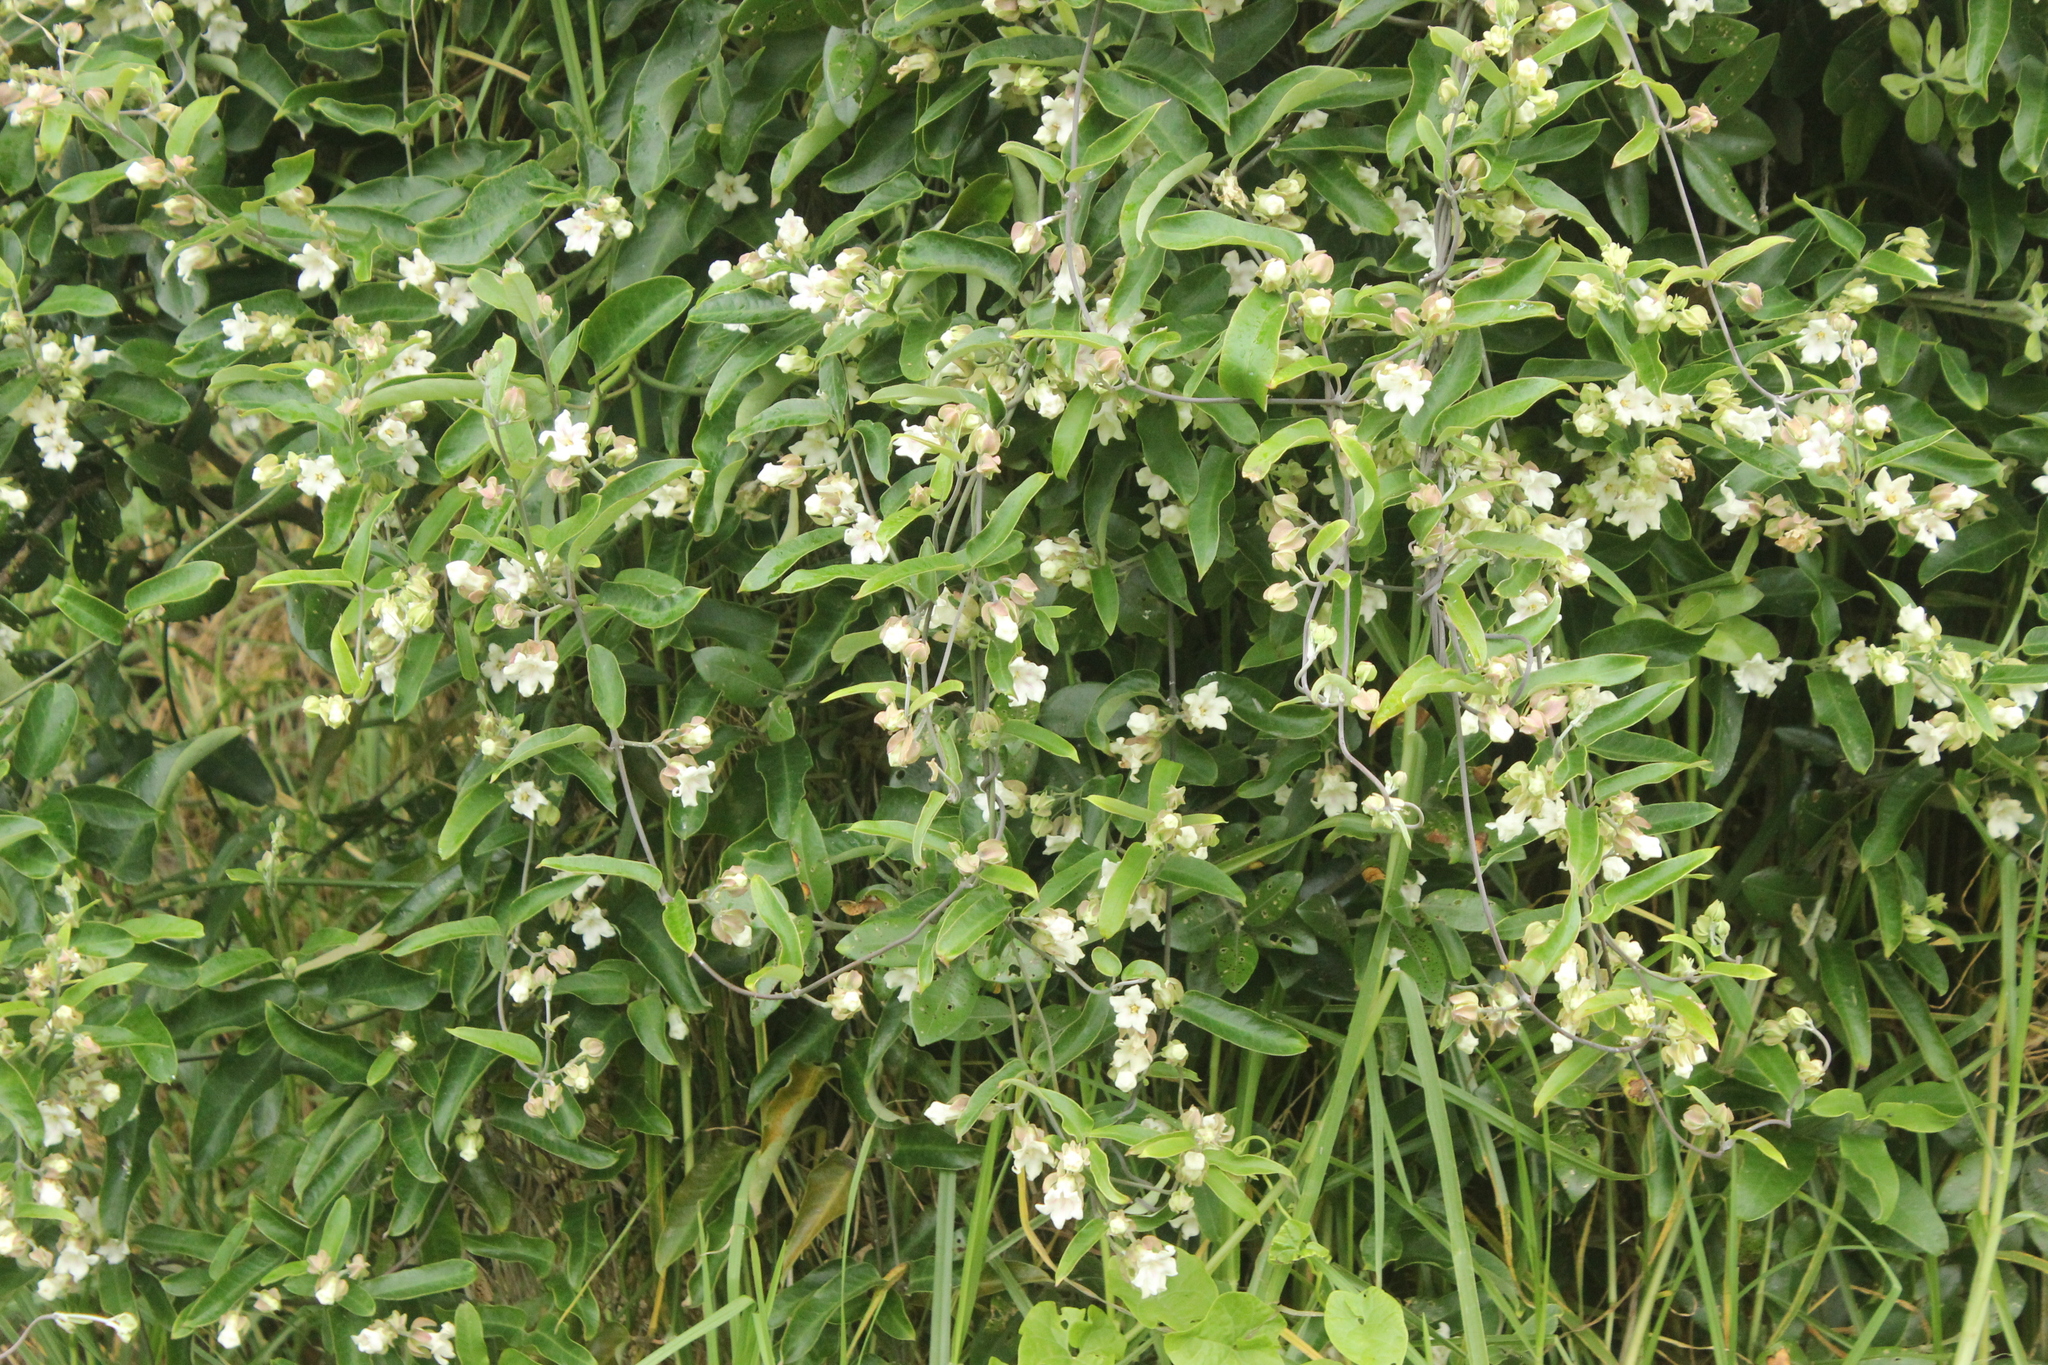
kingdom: Plantae
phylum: Tracheophyta
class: Magnoliopsida
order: Gentianales
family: Apocynaceae
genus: Araujia
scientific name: Araujia sericifera
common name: White bladderflower
